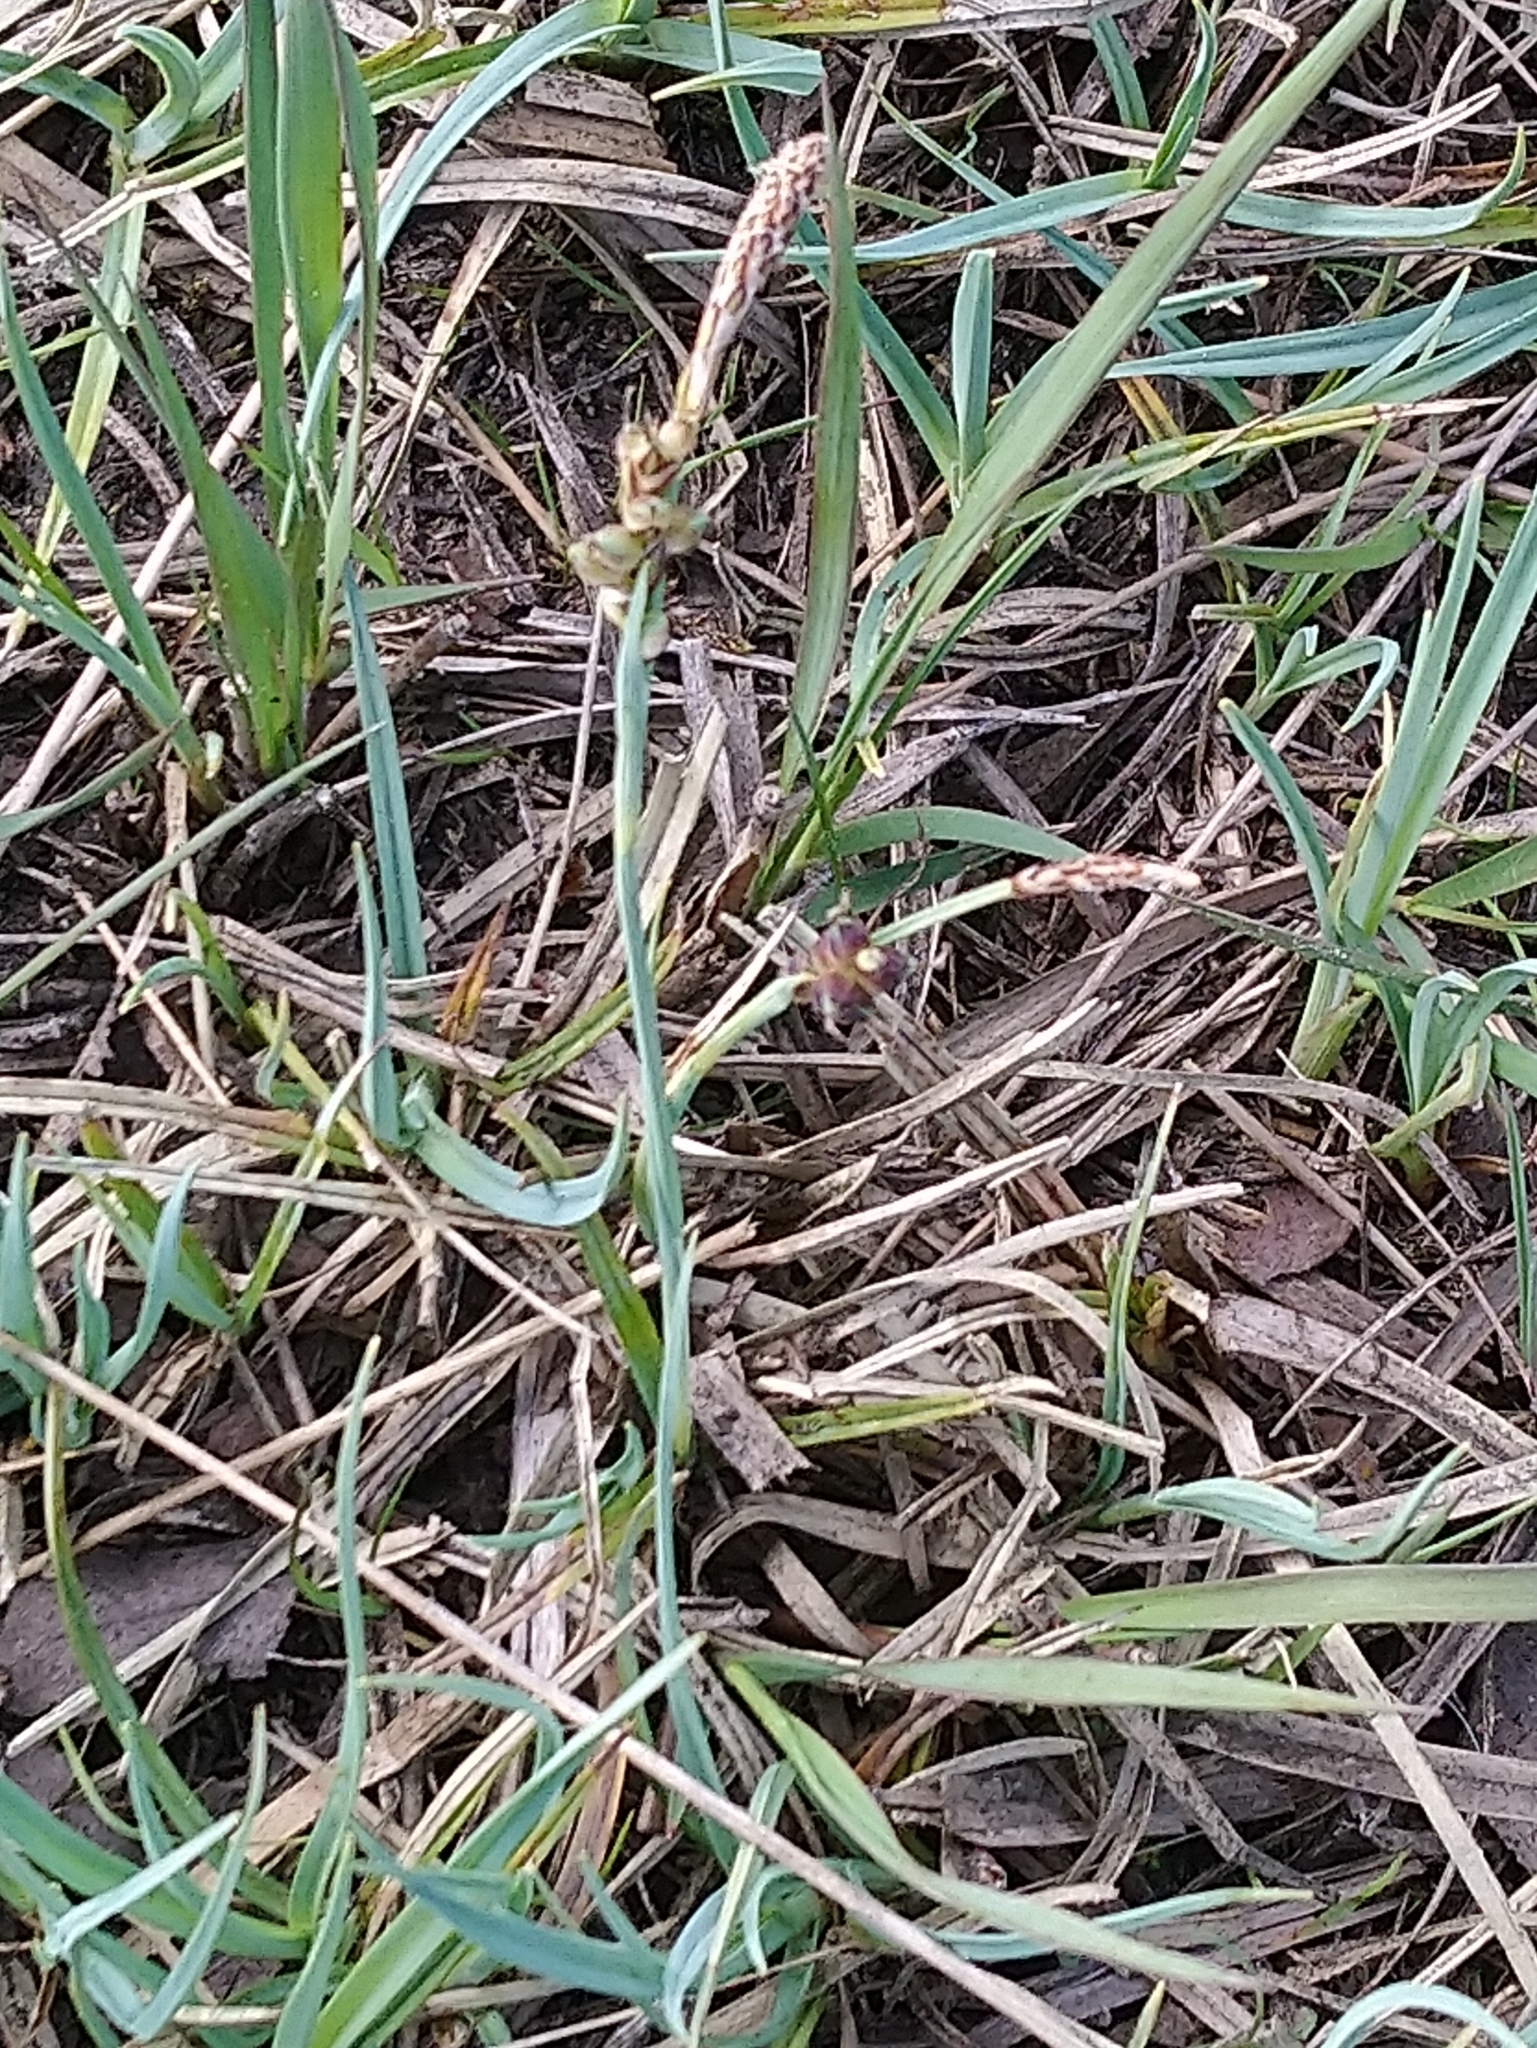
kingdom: Plantae
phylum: Tracheophyta
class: Liliopsida
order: Poales
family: Cyperaceae
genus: Carex
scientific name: Carex panicea
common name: Carnation sedge
